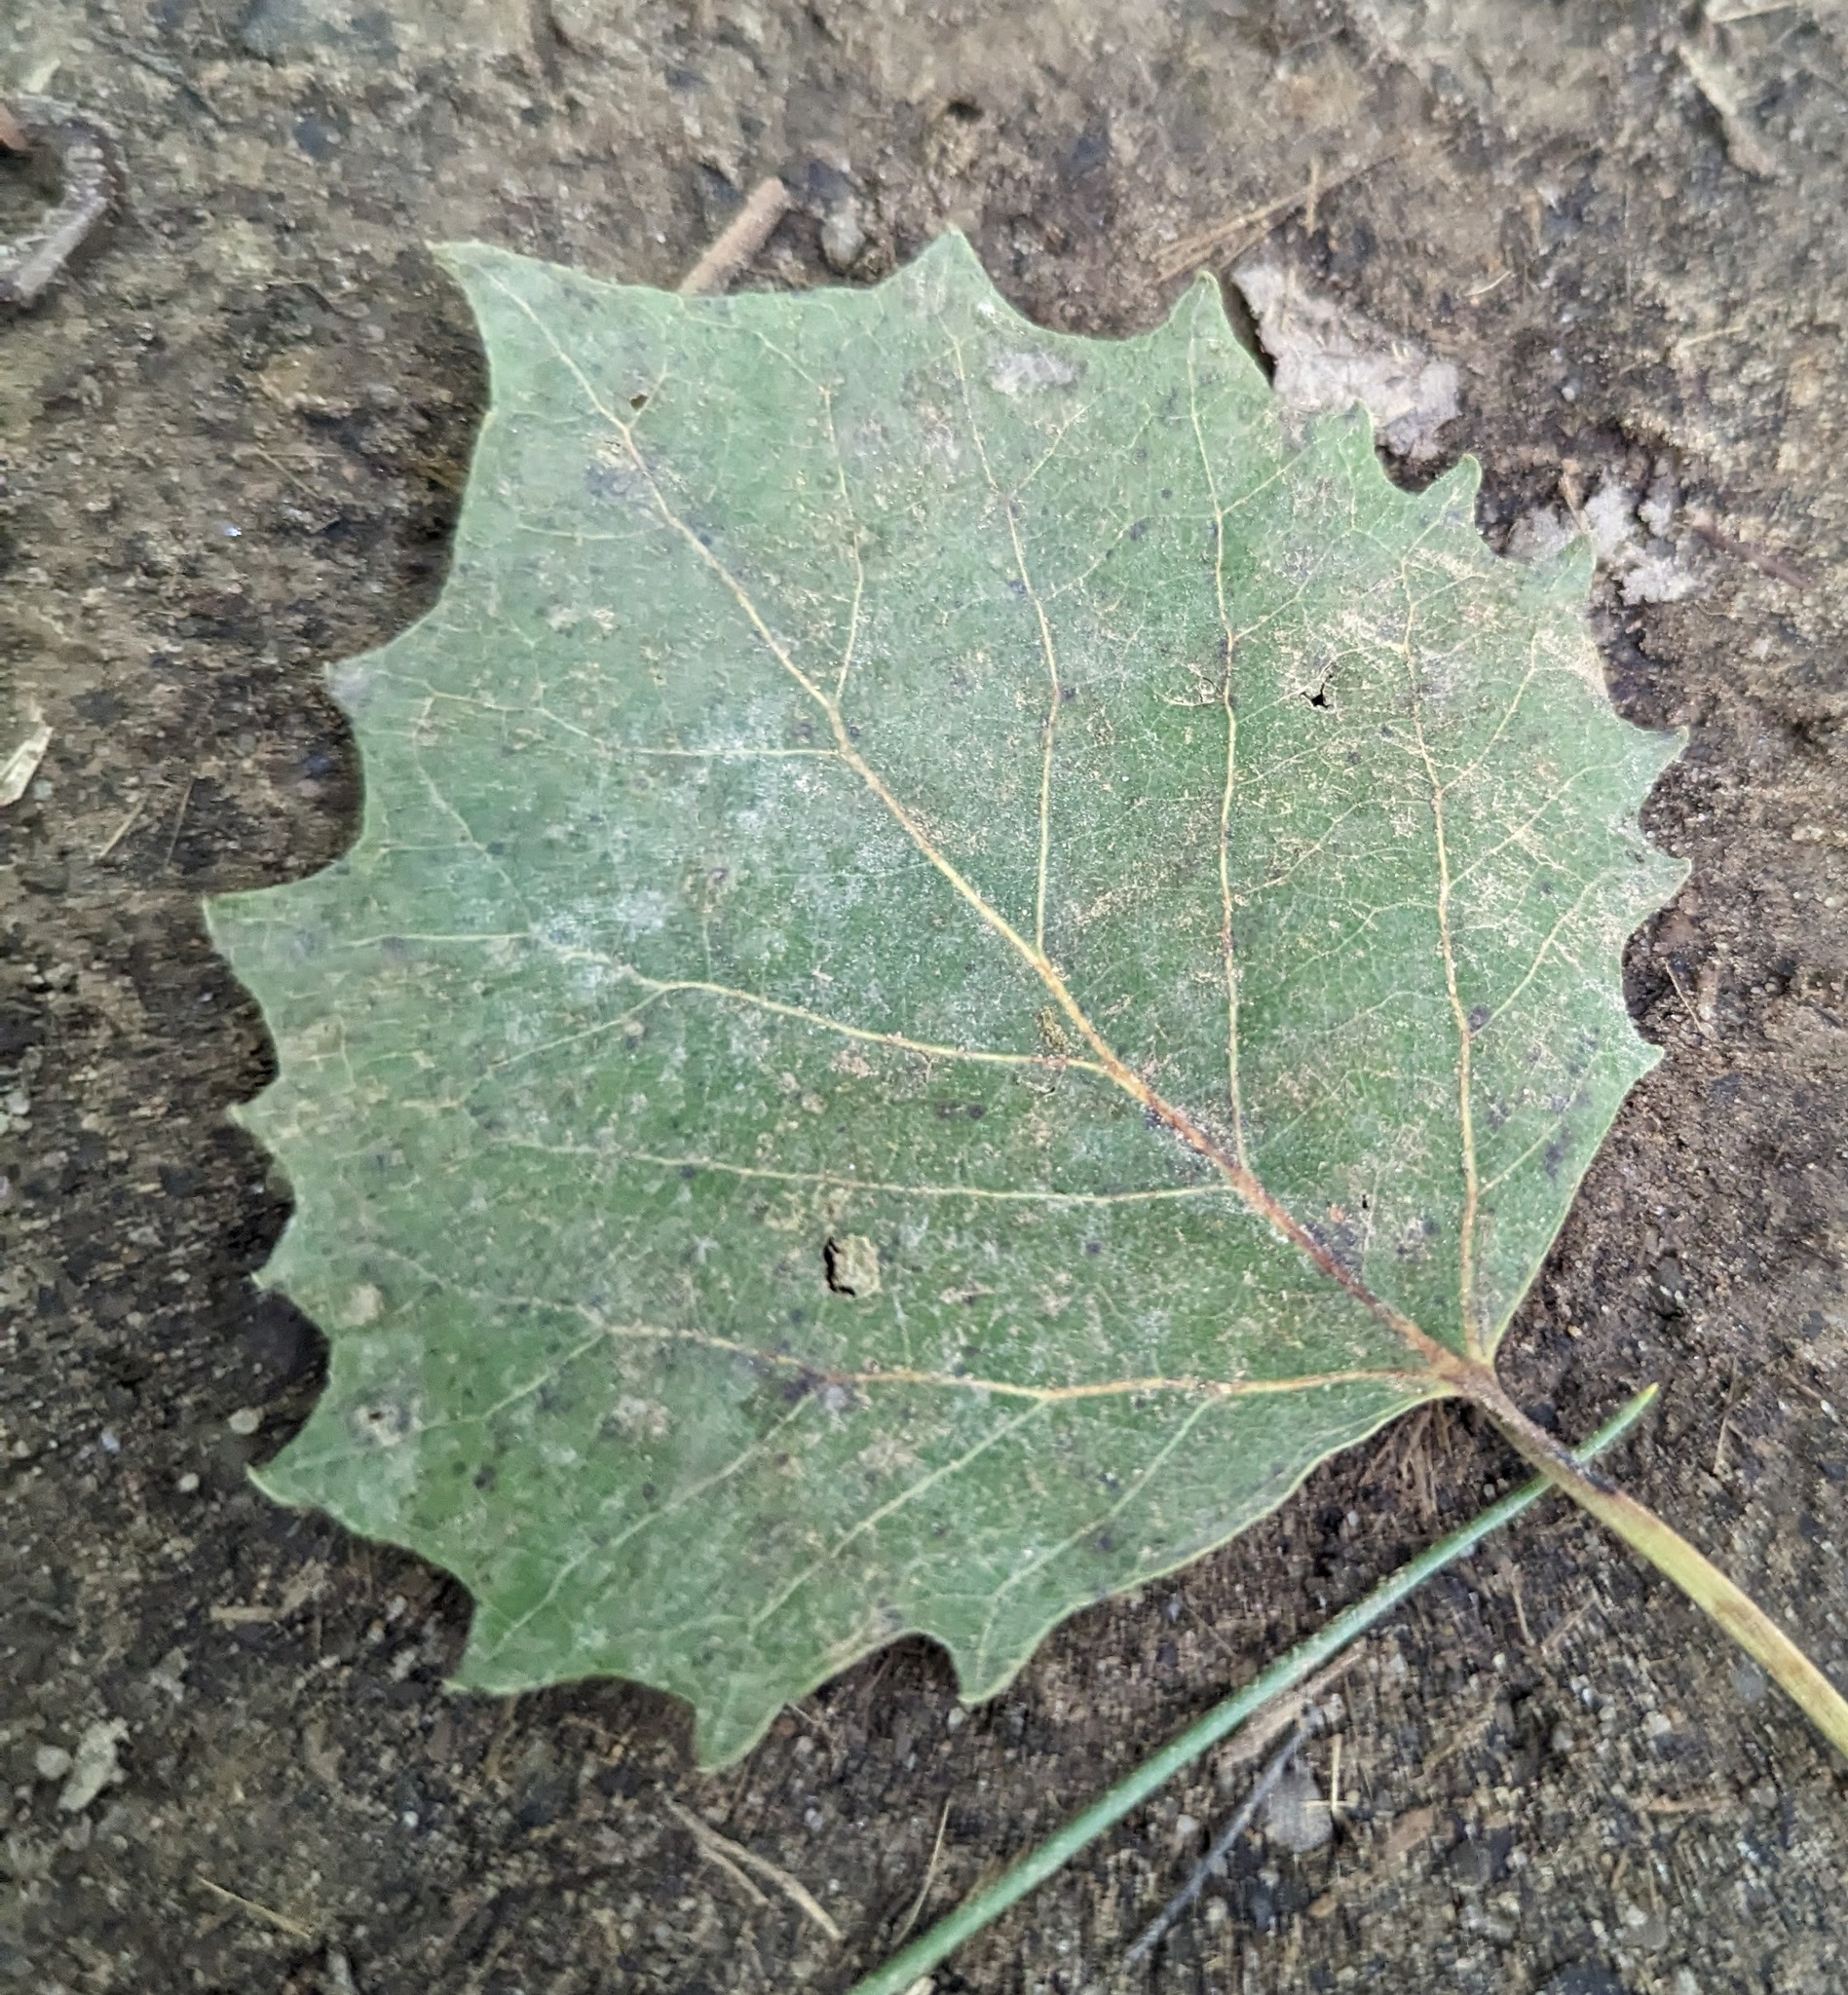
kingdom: Plantae
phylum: Tracheophyta
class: Magnoliopsida
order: Malpighiales
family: Salicaceae
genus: Populus
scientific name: Populus grandidentata
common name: Bigtooth aspen
